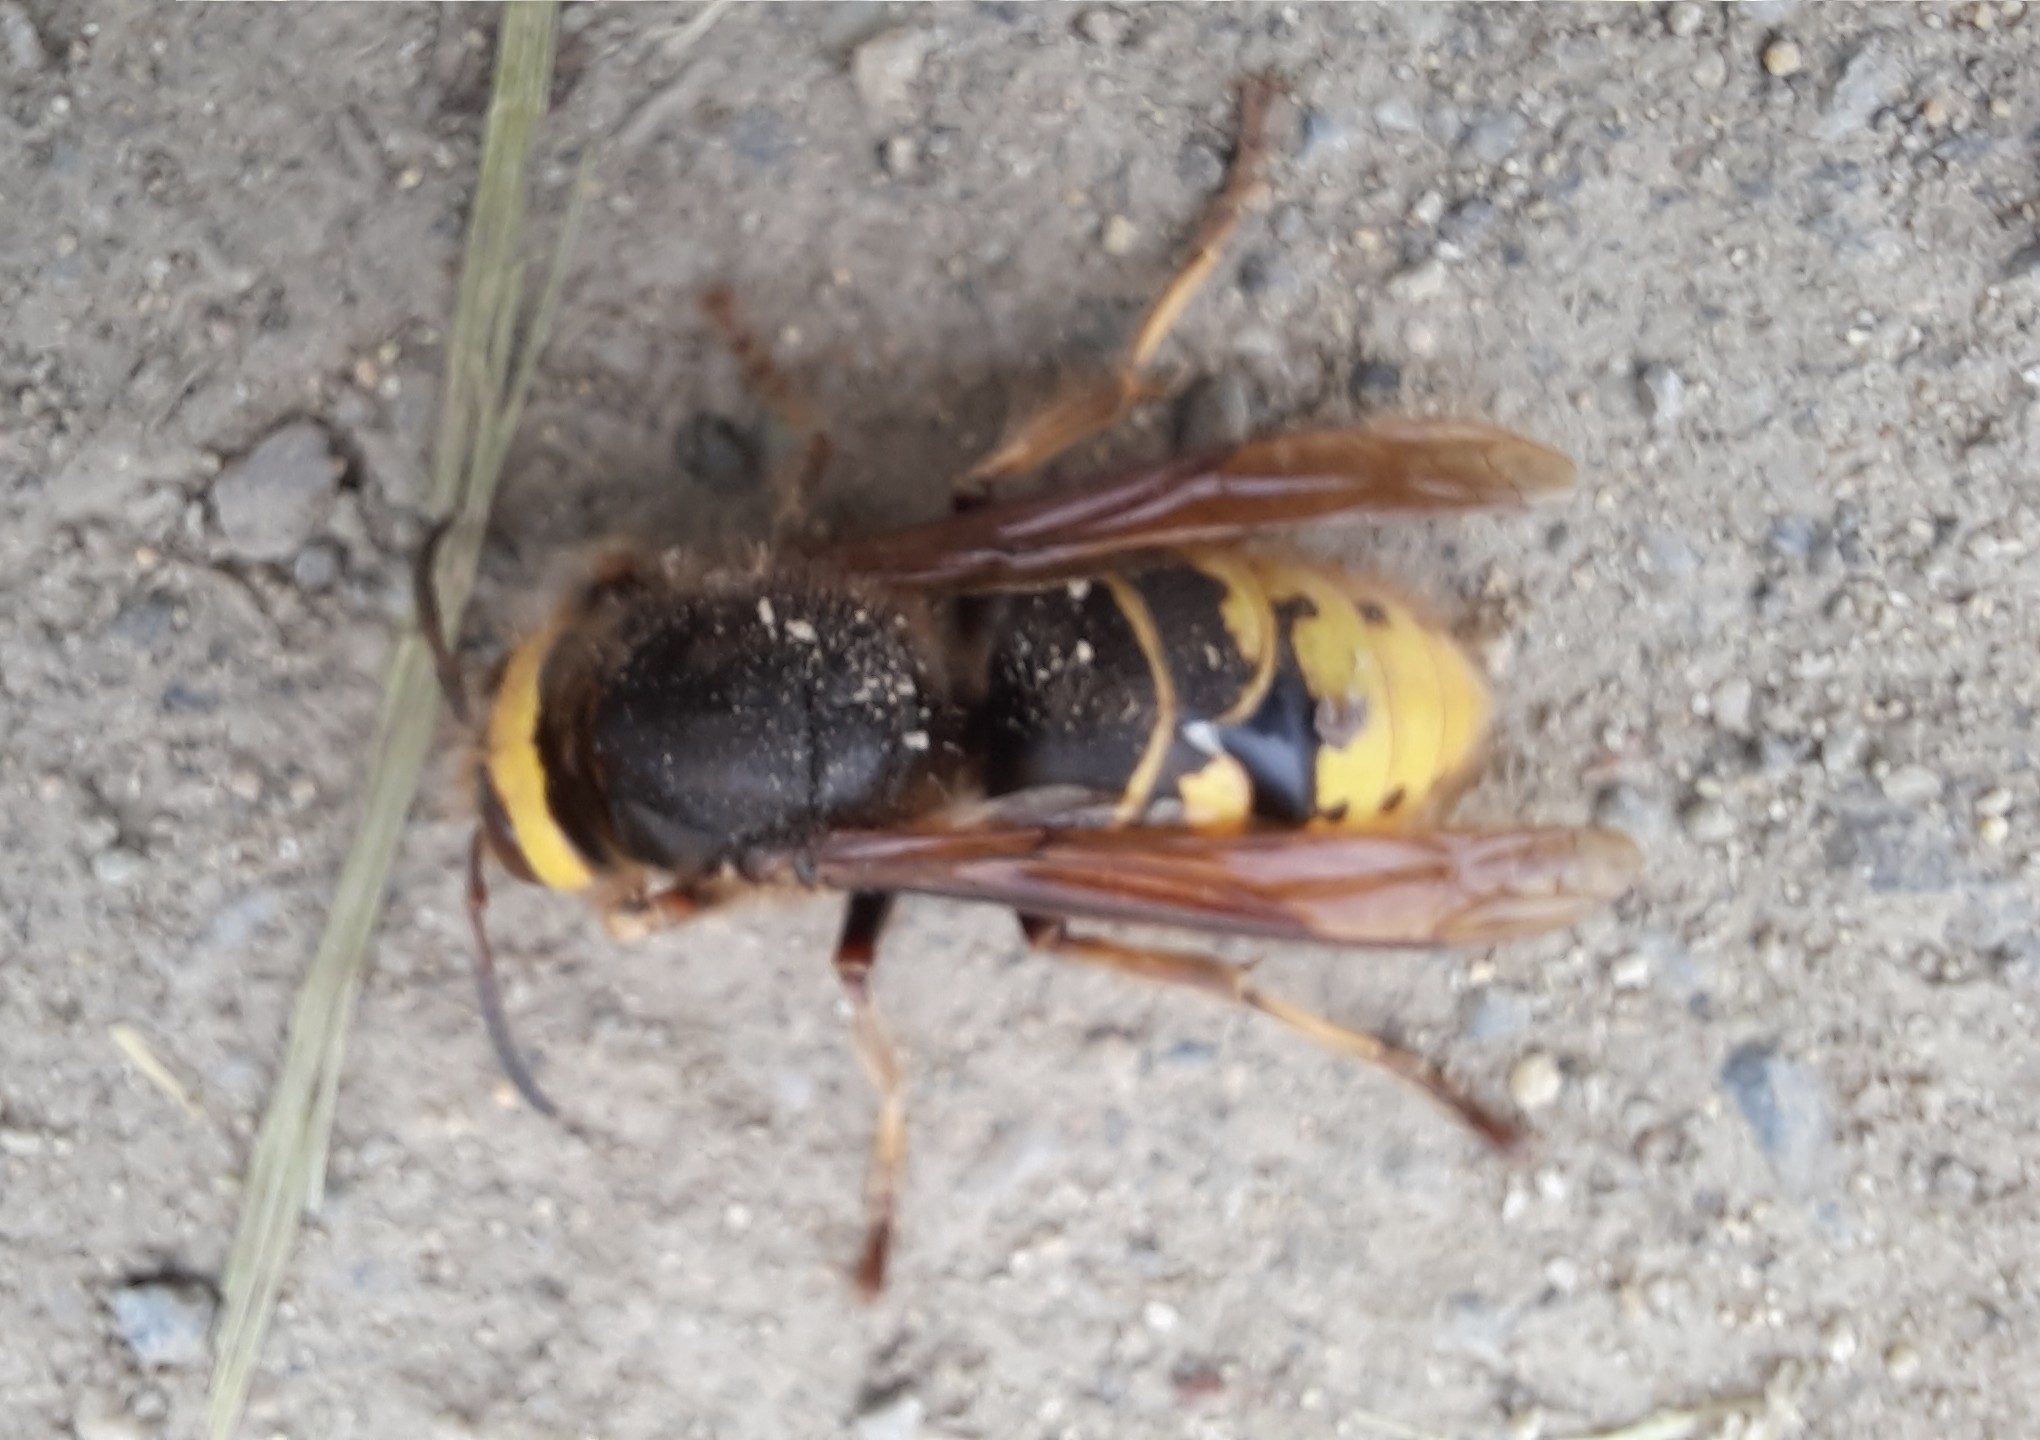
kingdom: Animalia
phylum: Arthropoda
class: Insecta
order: Hymenoptera
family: Vespidae
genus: Vespa
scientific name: Vespa crabro
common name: Hornet
